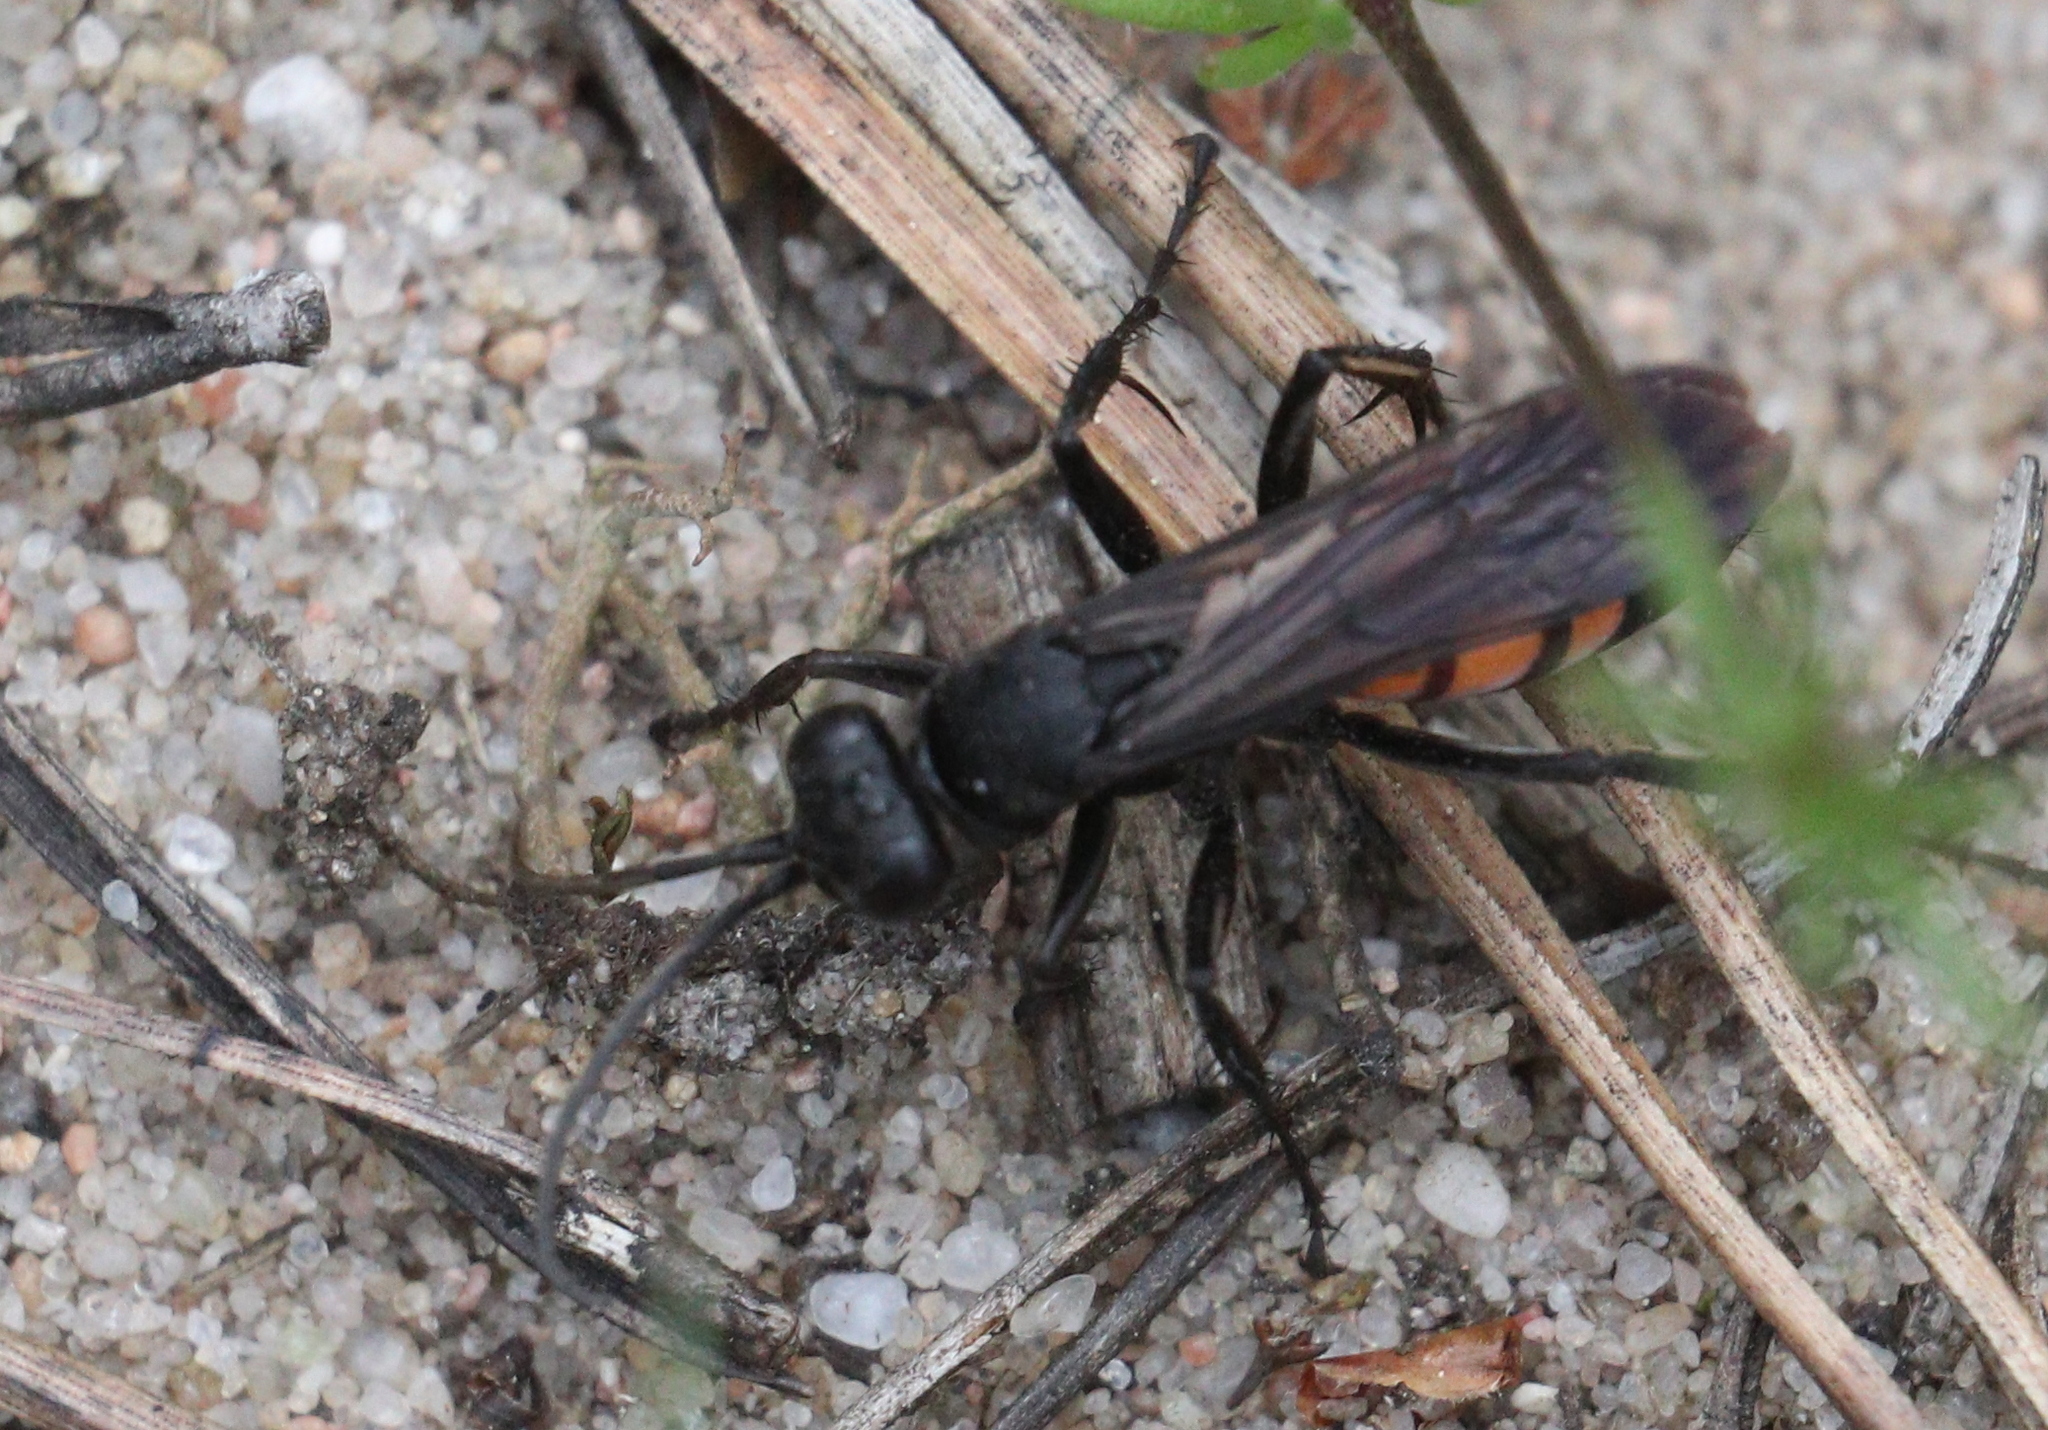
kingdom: Animalia
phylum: Arthropoda
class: Insecta
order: Hymenoptera
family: Pompilidae
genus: Anoplius
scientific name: Anoplius viaticus
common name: Black banded spider wasp
